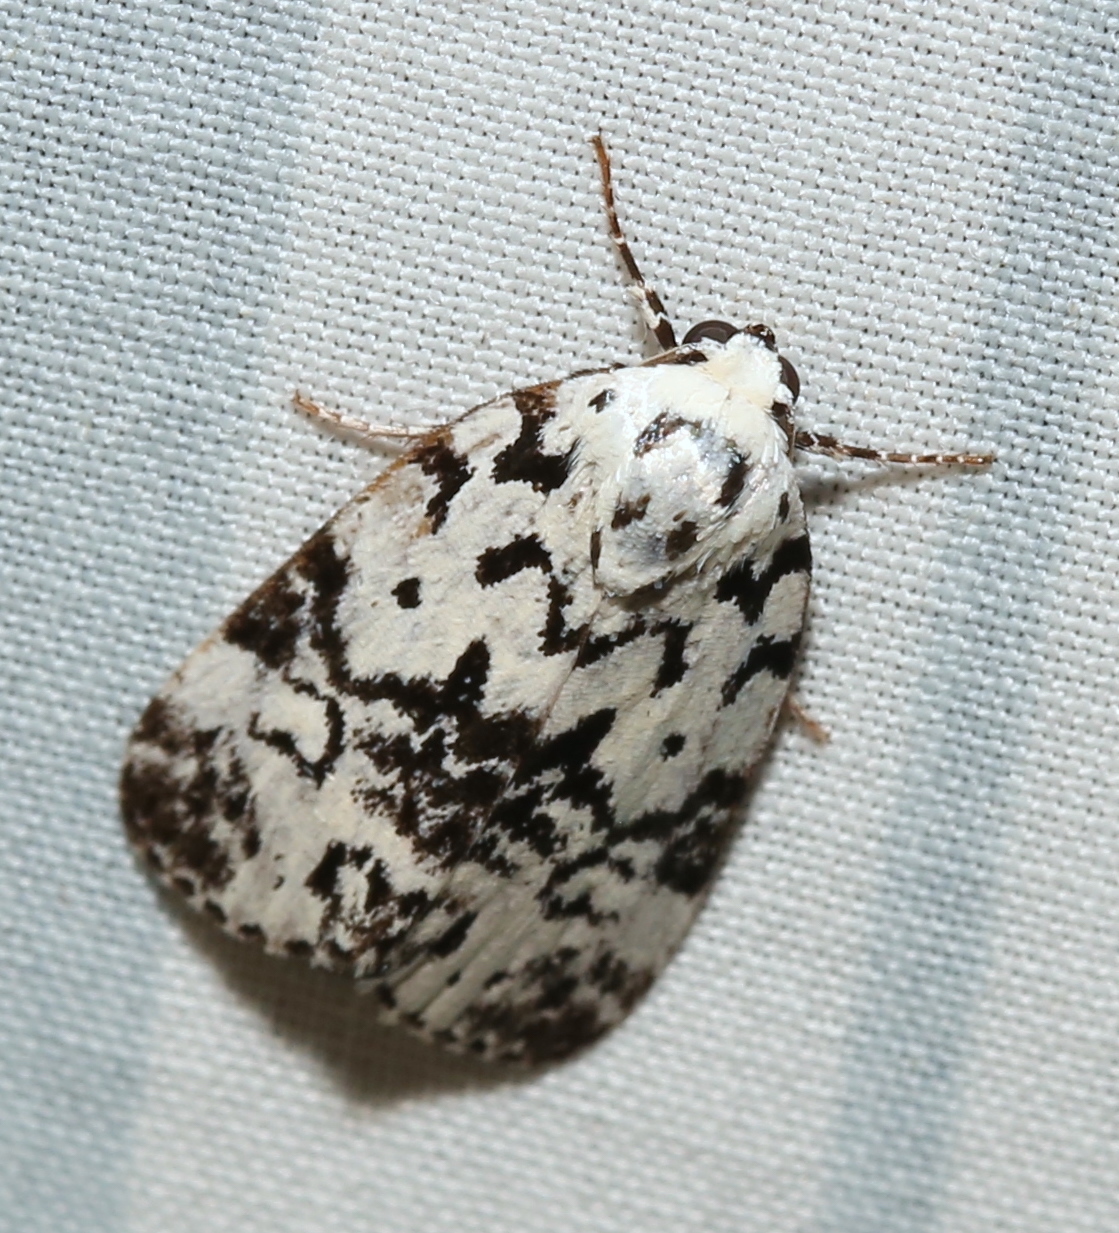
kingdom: Animalia
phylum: Arthropoda
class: Insecta
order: Lepidoptera
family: Noctuidae
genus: Polygrammate
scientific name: Polygrammate hebraeicum
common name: Hebrew moth
